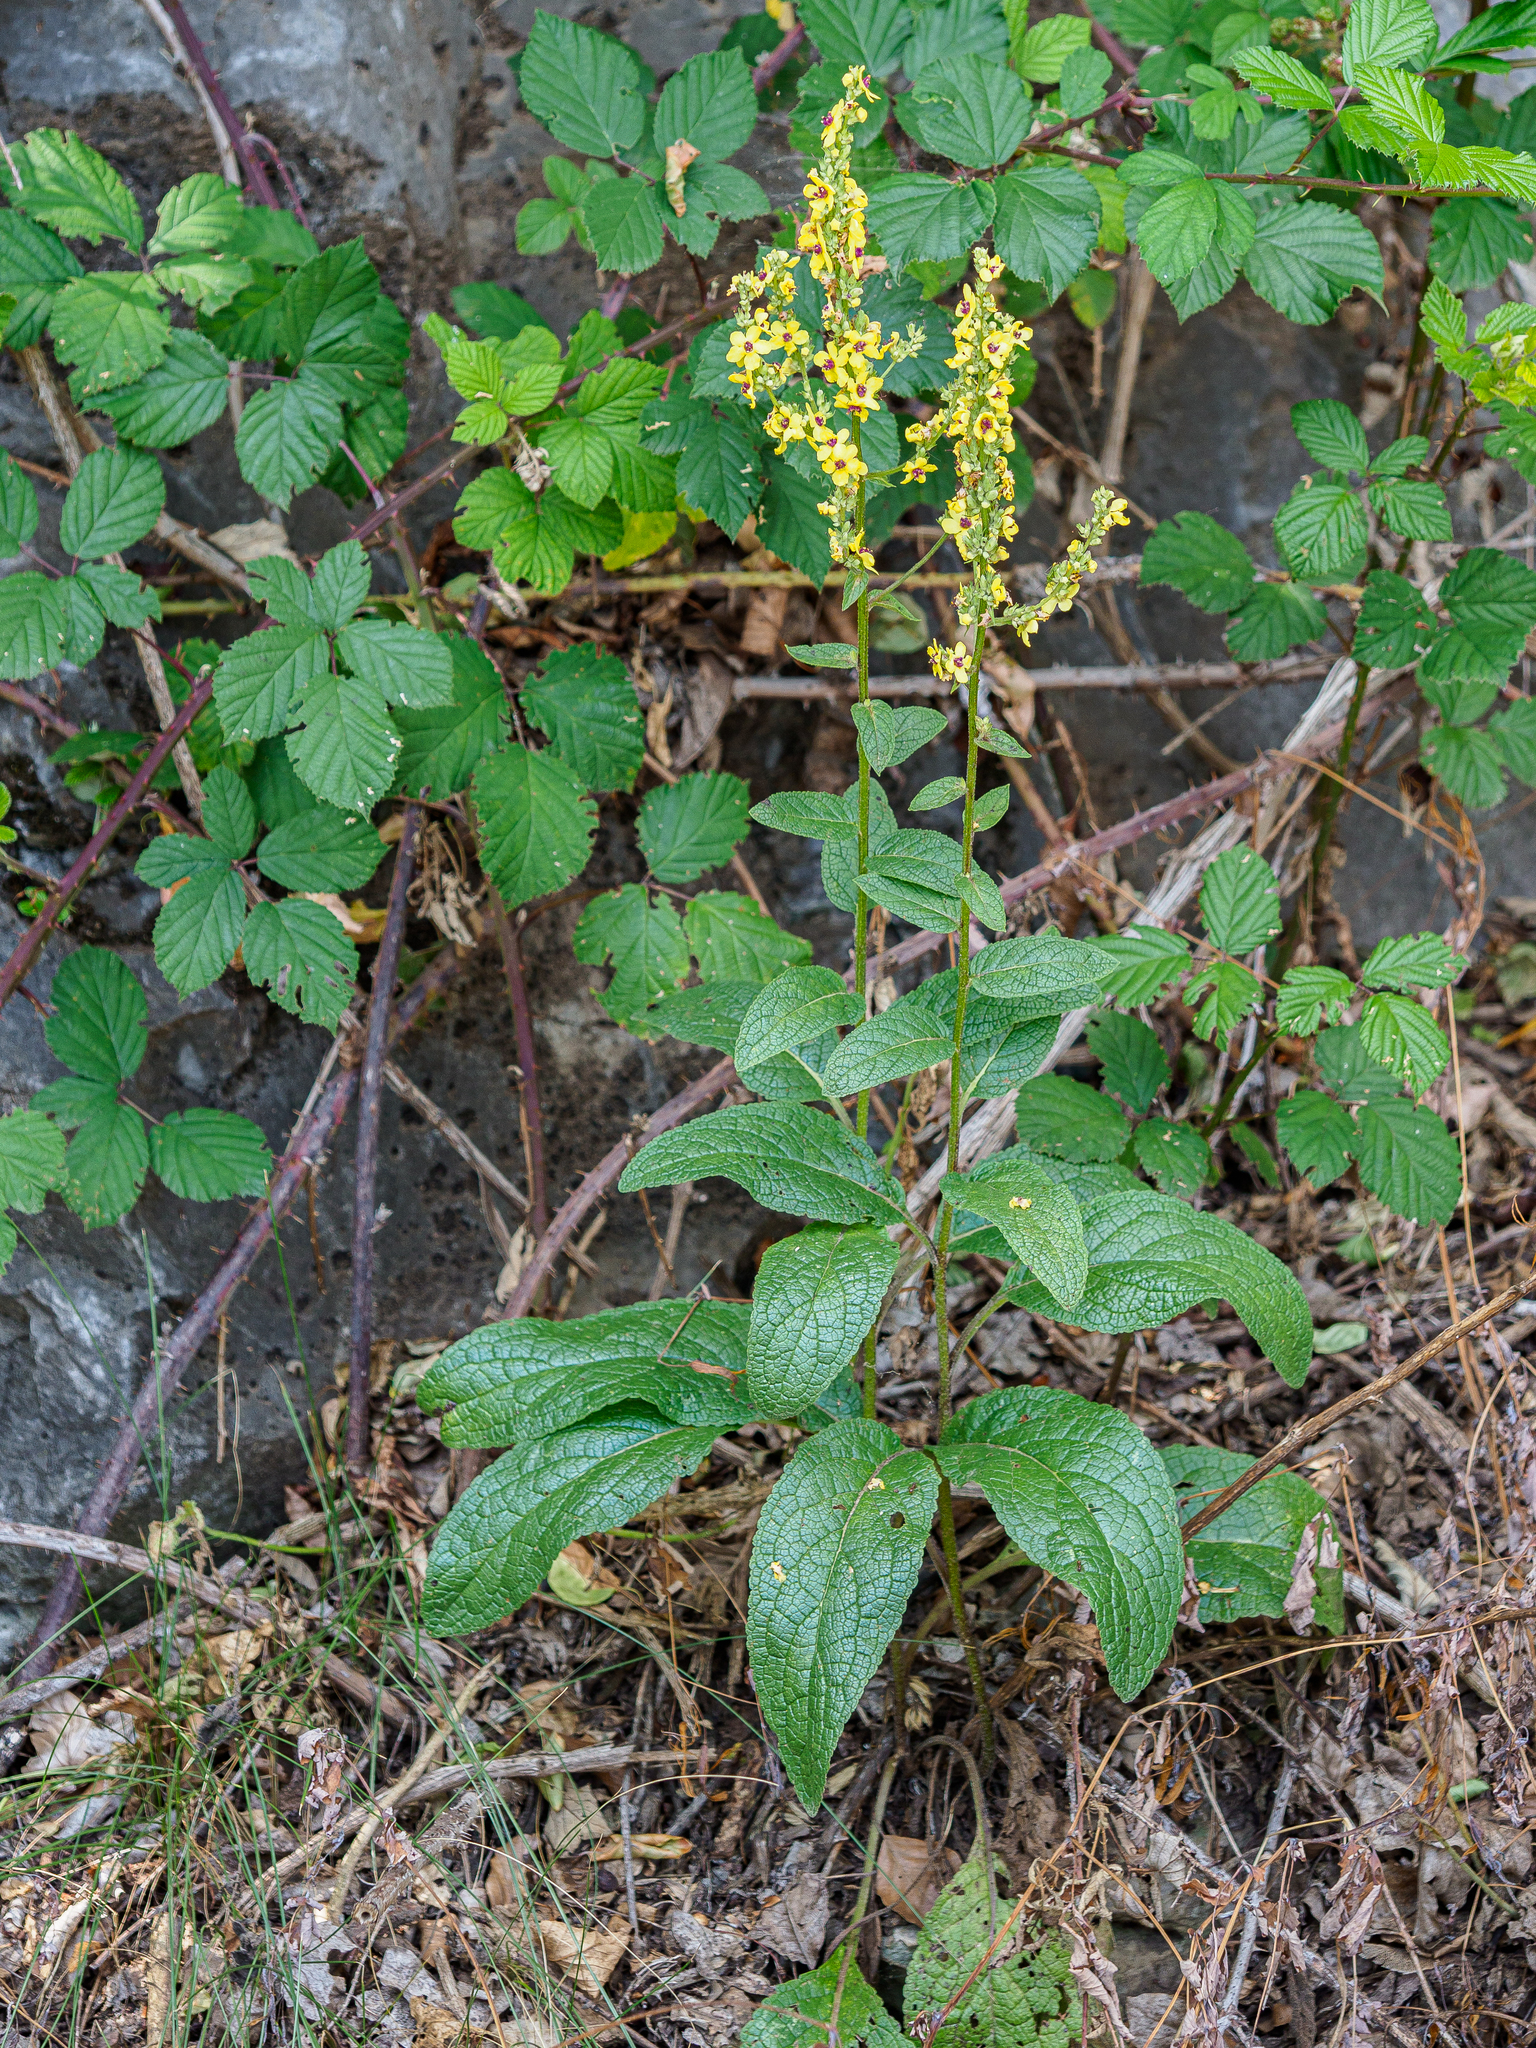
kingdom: Plantae
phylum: Tracheophyta
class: Magnoliopsida
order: Lamiales
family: Scrophulariaceae
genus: Verbascum
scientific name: Verbascum chaixii
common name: Nettle-leaved mullein
